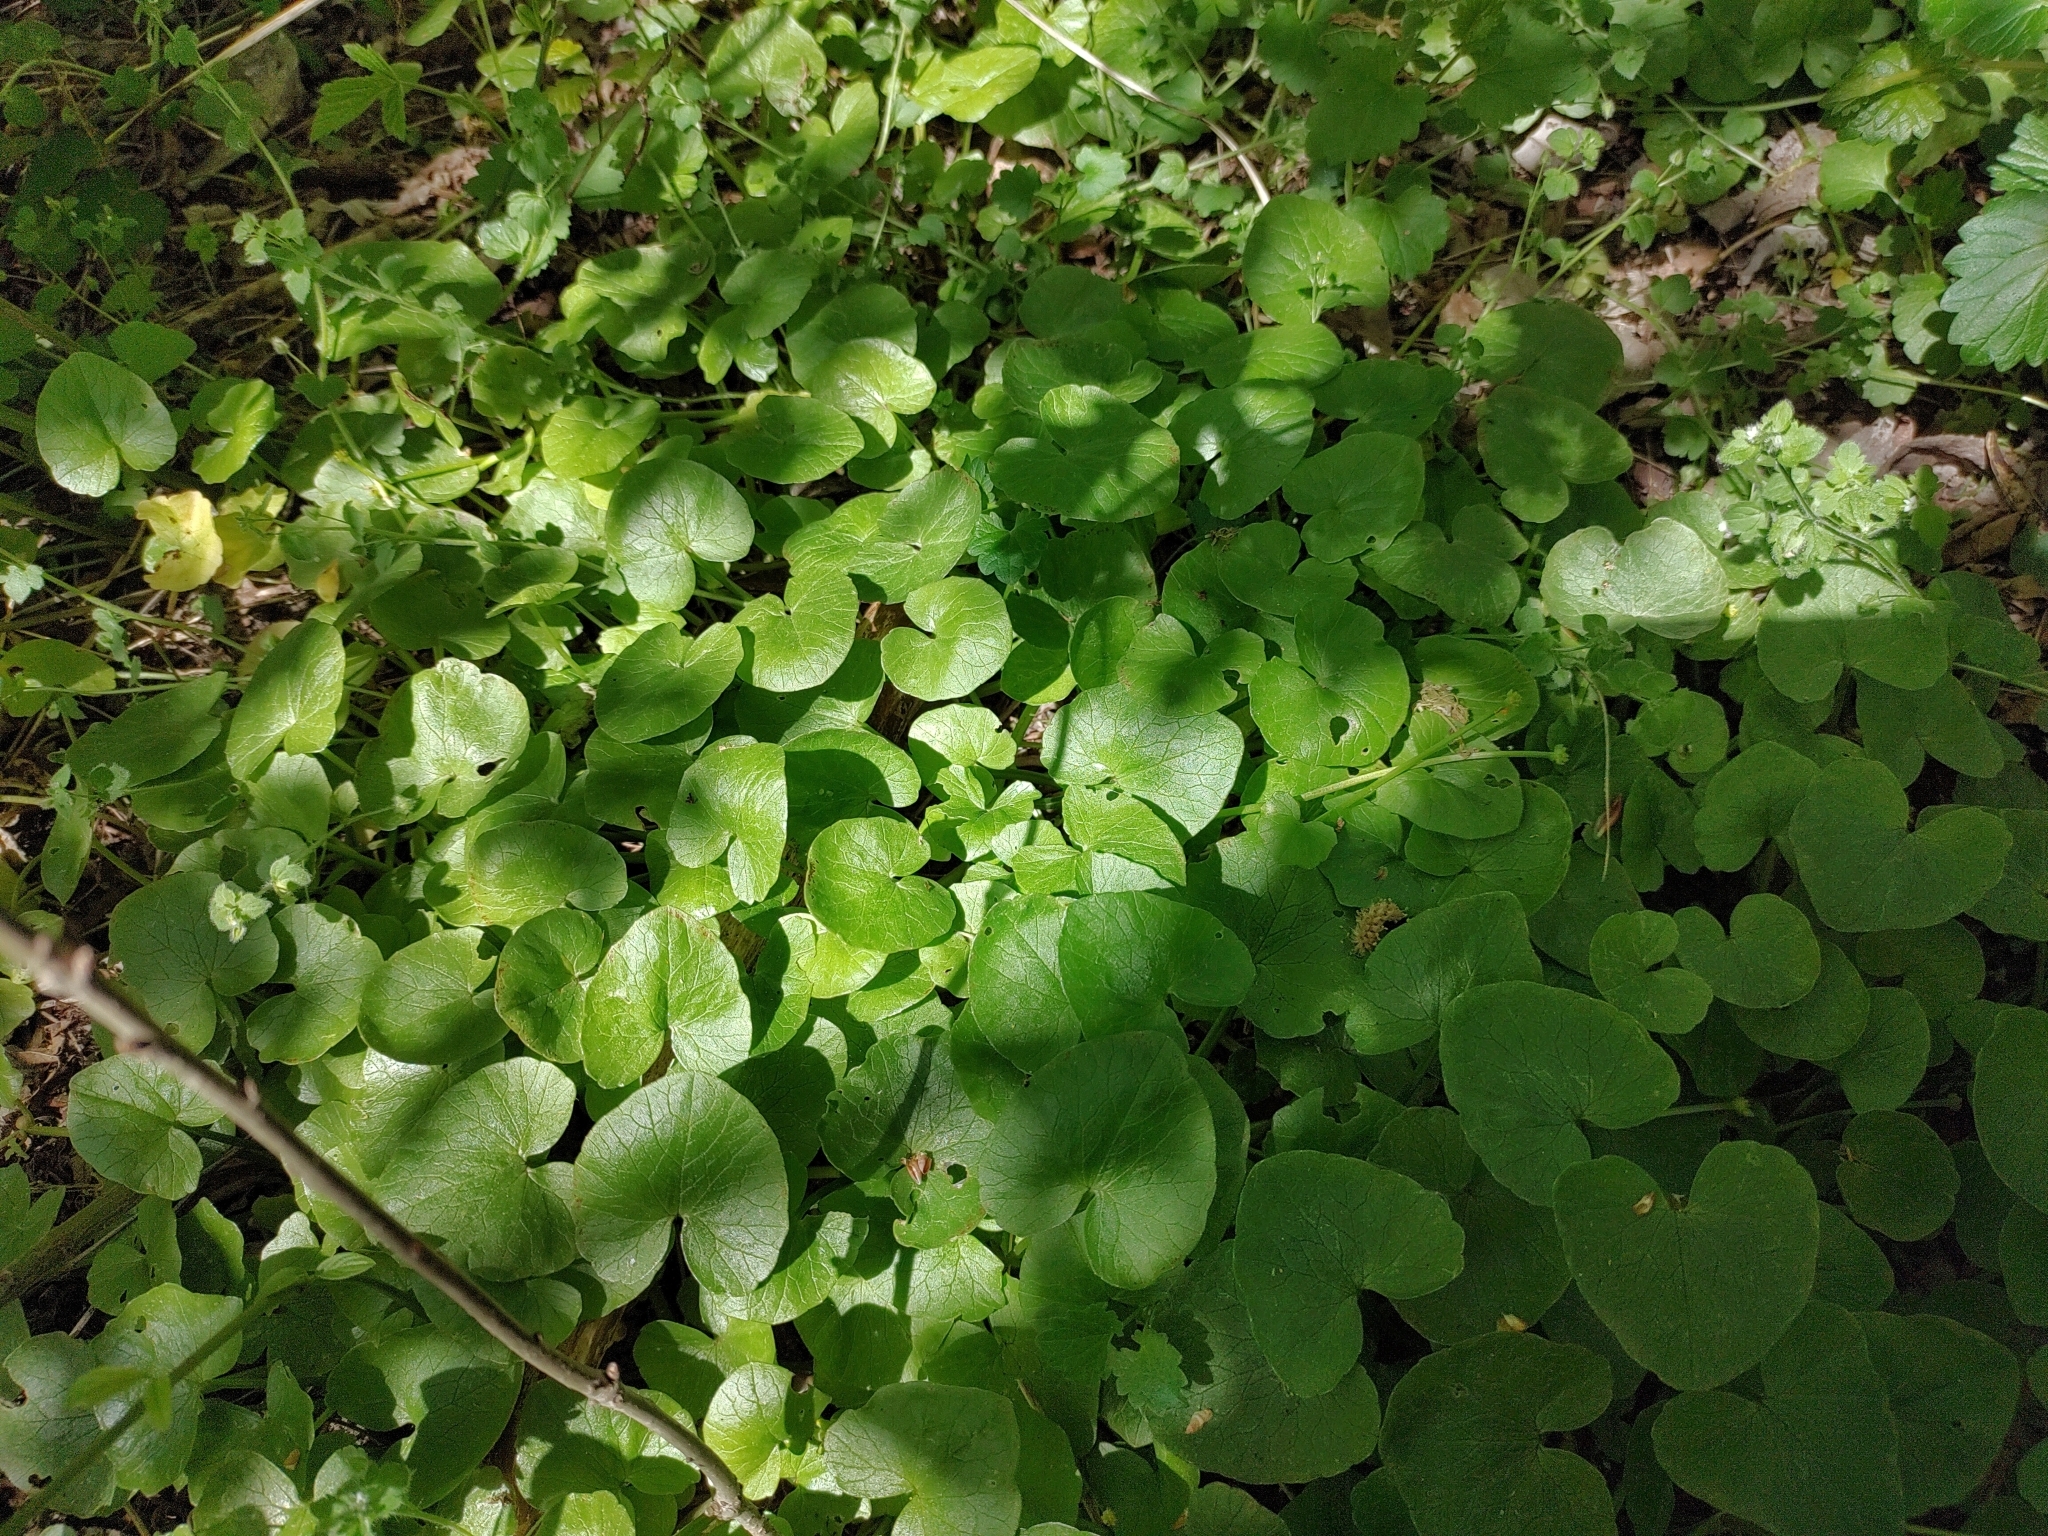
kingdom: Plantae
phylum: Tracheophyta
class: Magnoliopsida
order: Ranunculales
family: Ranunculaceae
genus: Ficaria
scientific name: Ficaria verna
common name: Lesser celandine
